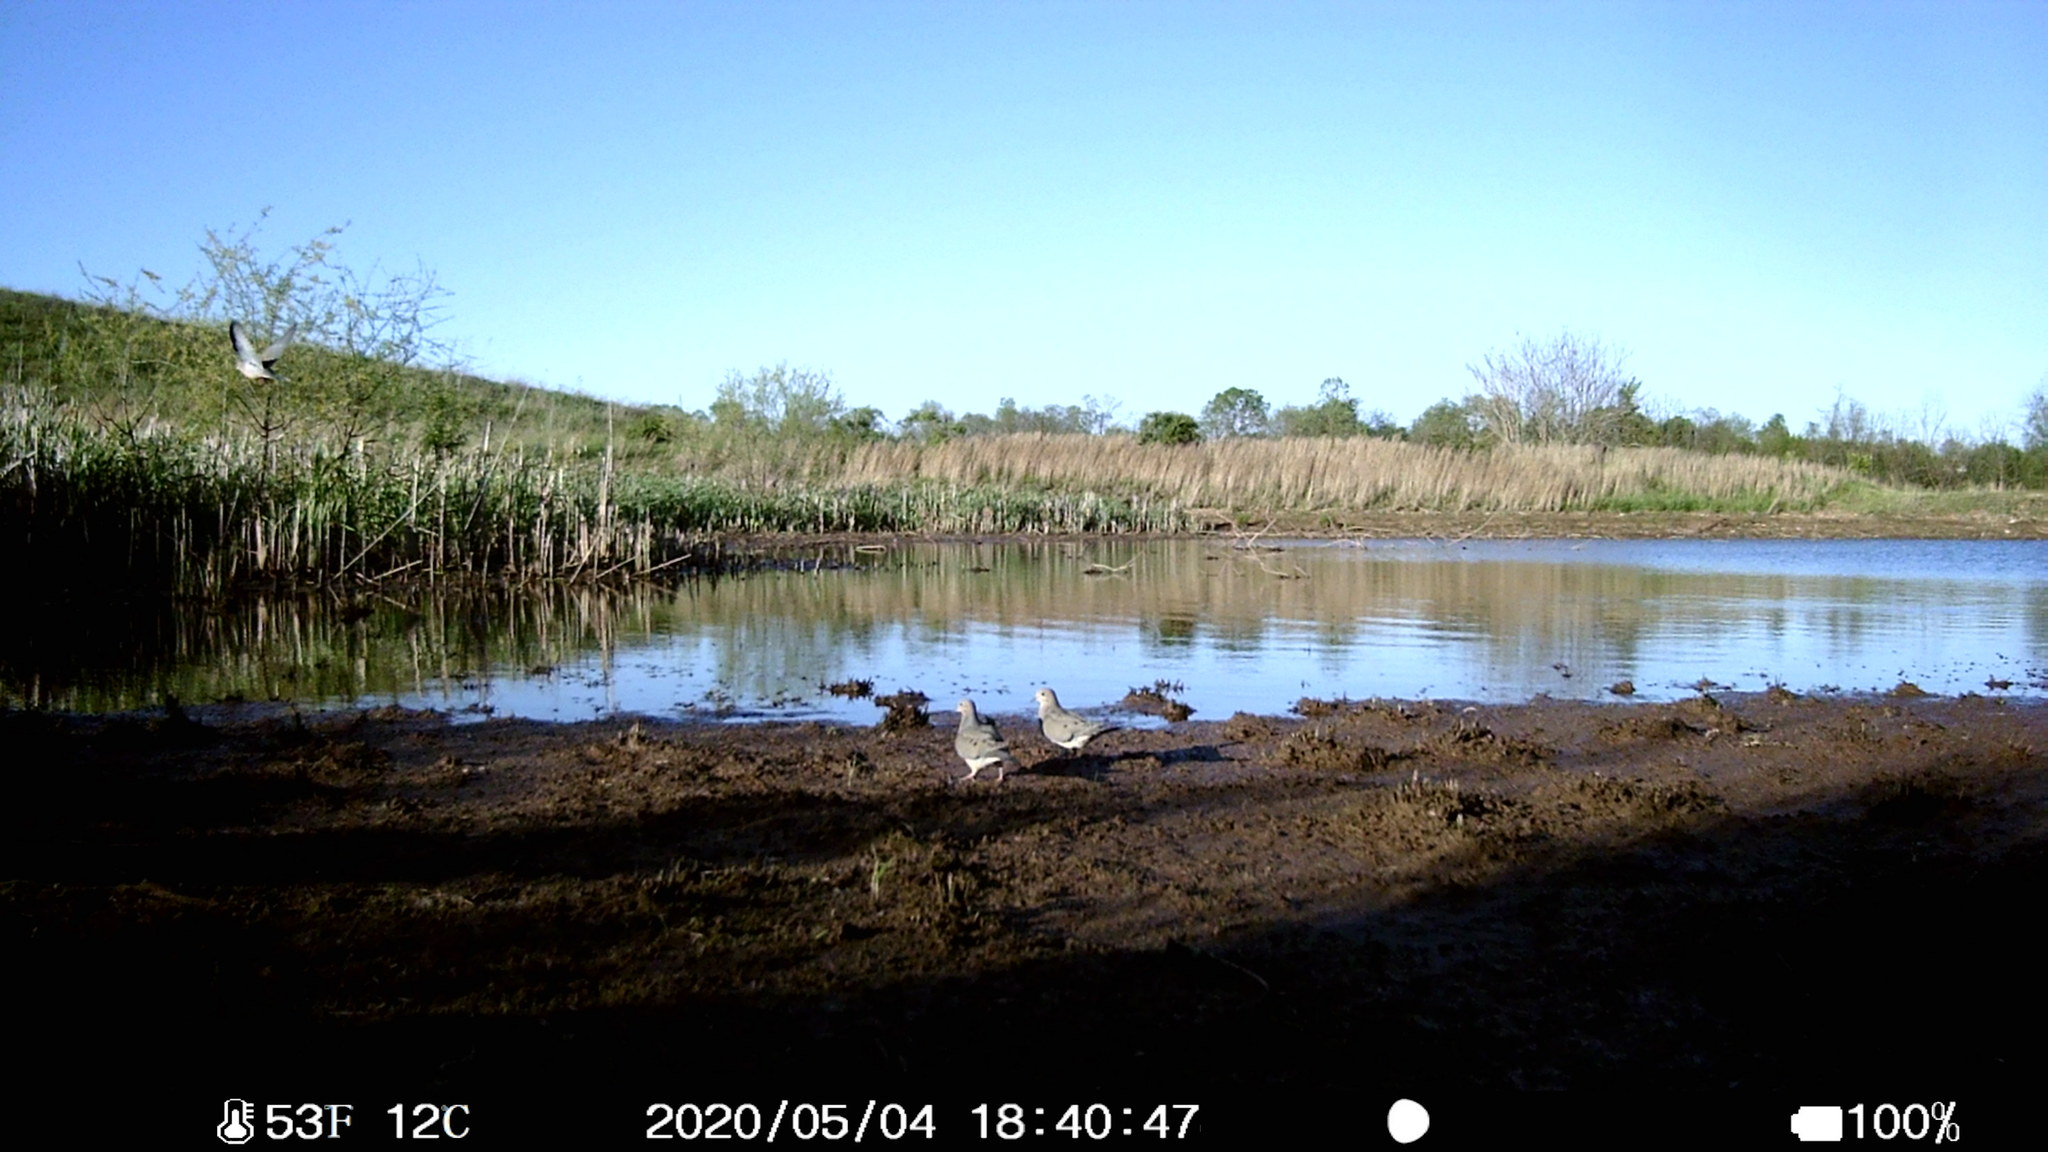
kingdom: Animalia
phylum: Chordata
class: Aves
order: Columbiformes
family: Columbidae
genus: Zenaida
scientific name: Zenaida macroura
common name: Mourning dove
